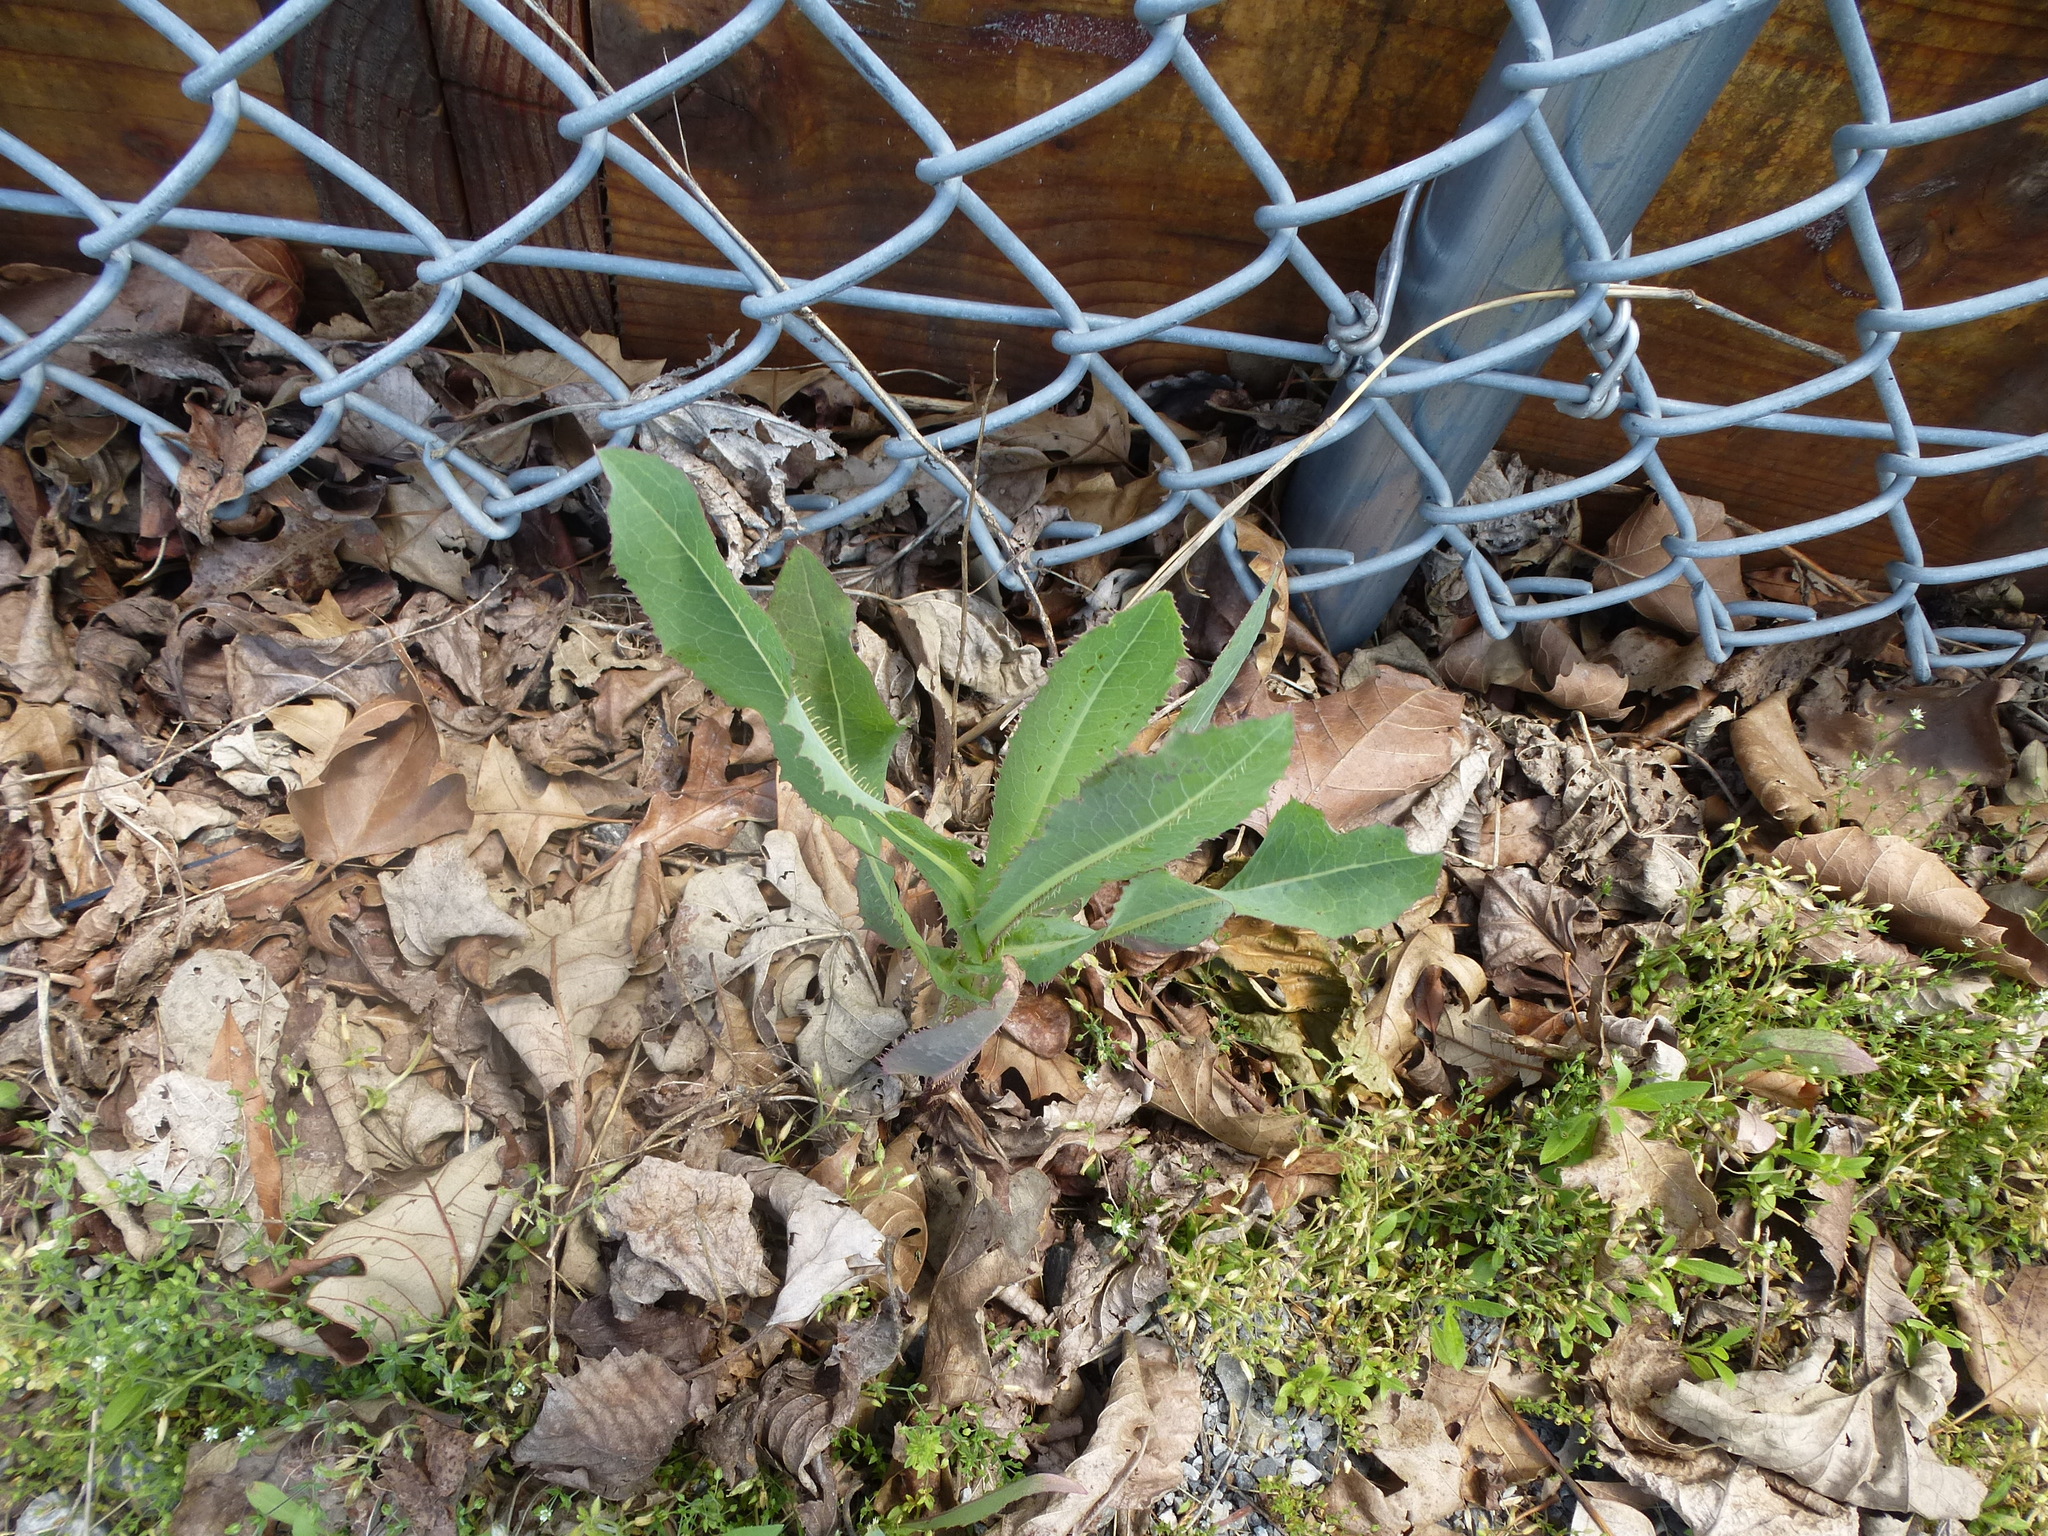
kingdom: Plantae
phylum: Tracheophyta
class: Magnoliopsida
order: Asterales
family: Asteraceae
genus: Lactuca
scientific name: Lactuca serriola
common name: Prickly lettuce
